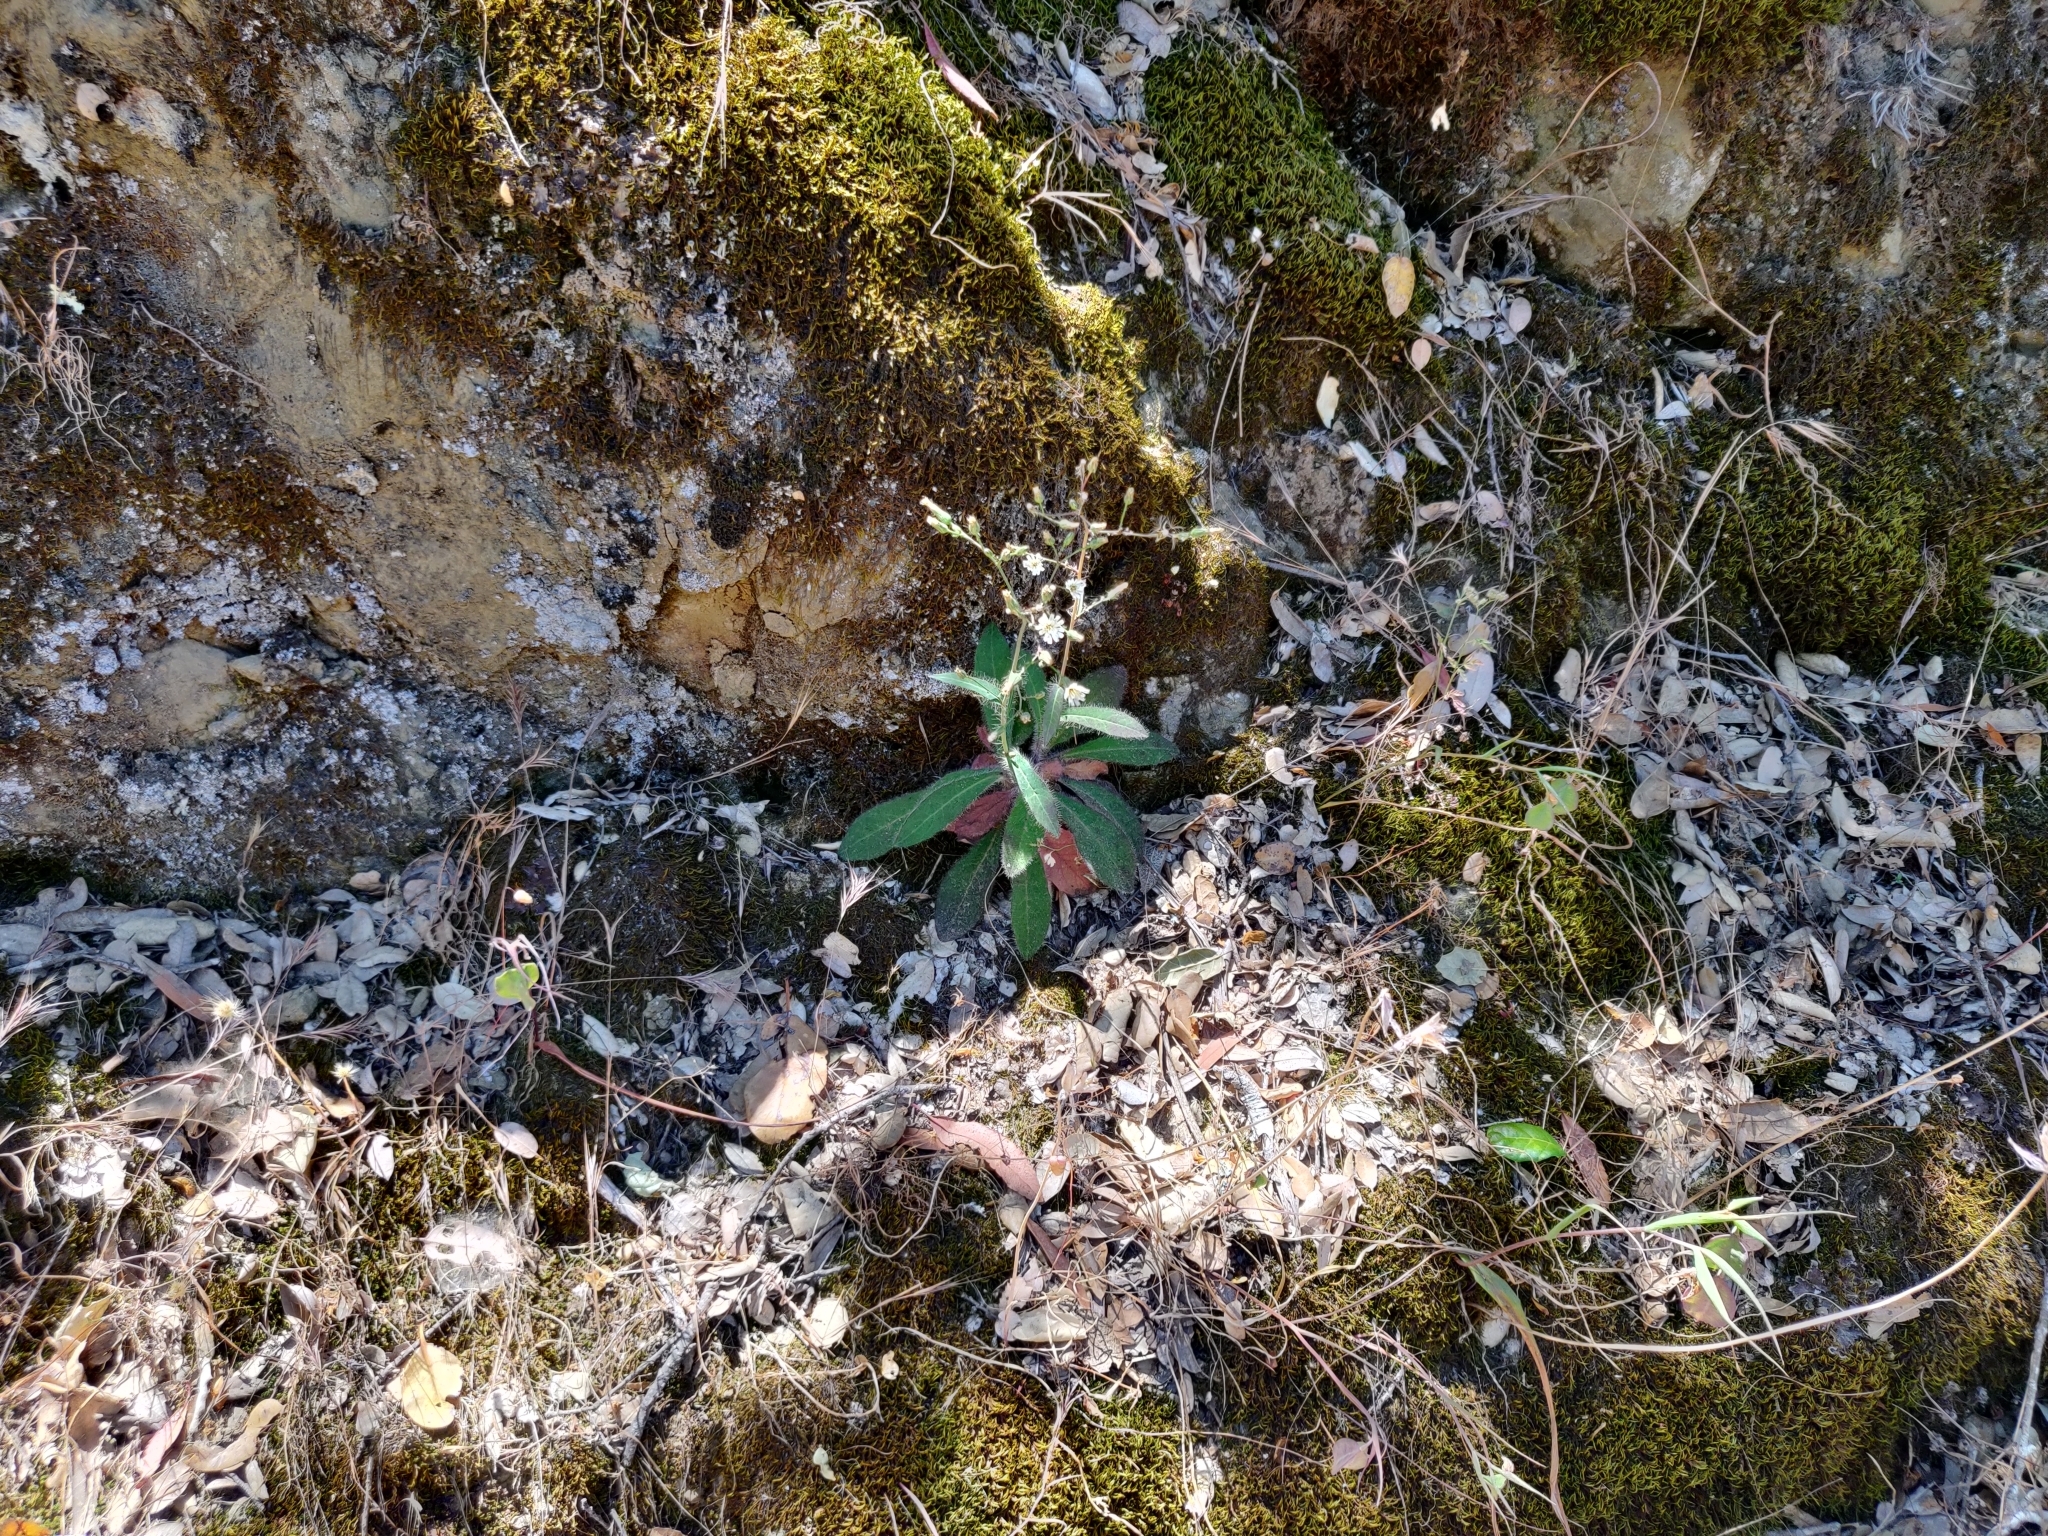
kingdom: Plantae
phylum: Tracheophyta
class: Magnoliopsida
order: Asterales
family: Asteraceae
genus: Hieracium
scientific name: Hieracium albiflorum
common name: White hawkweed
